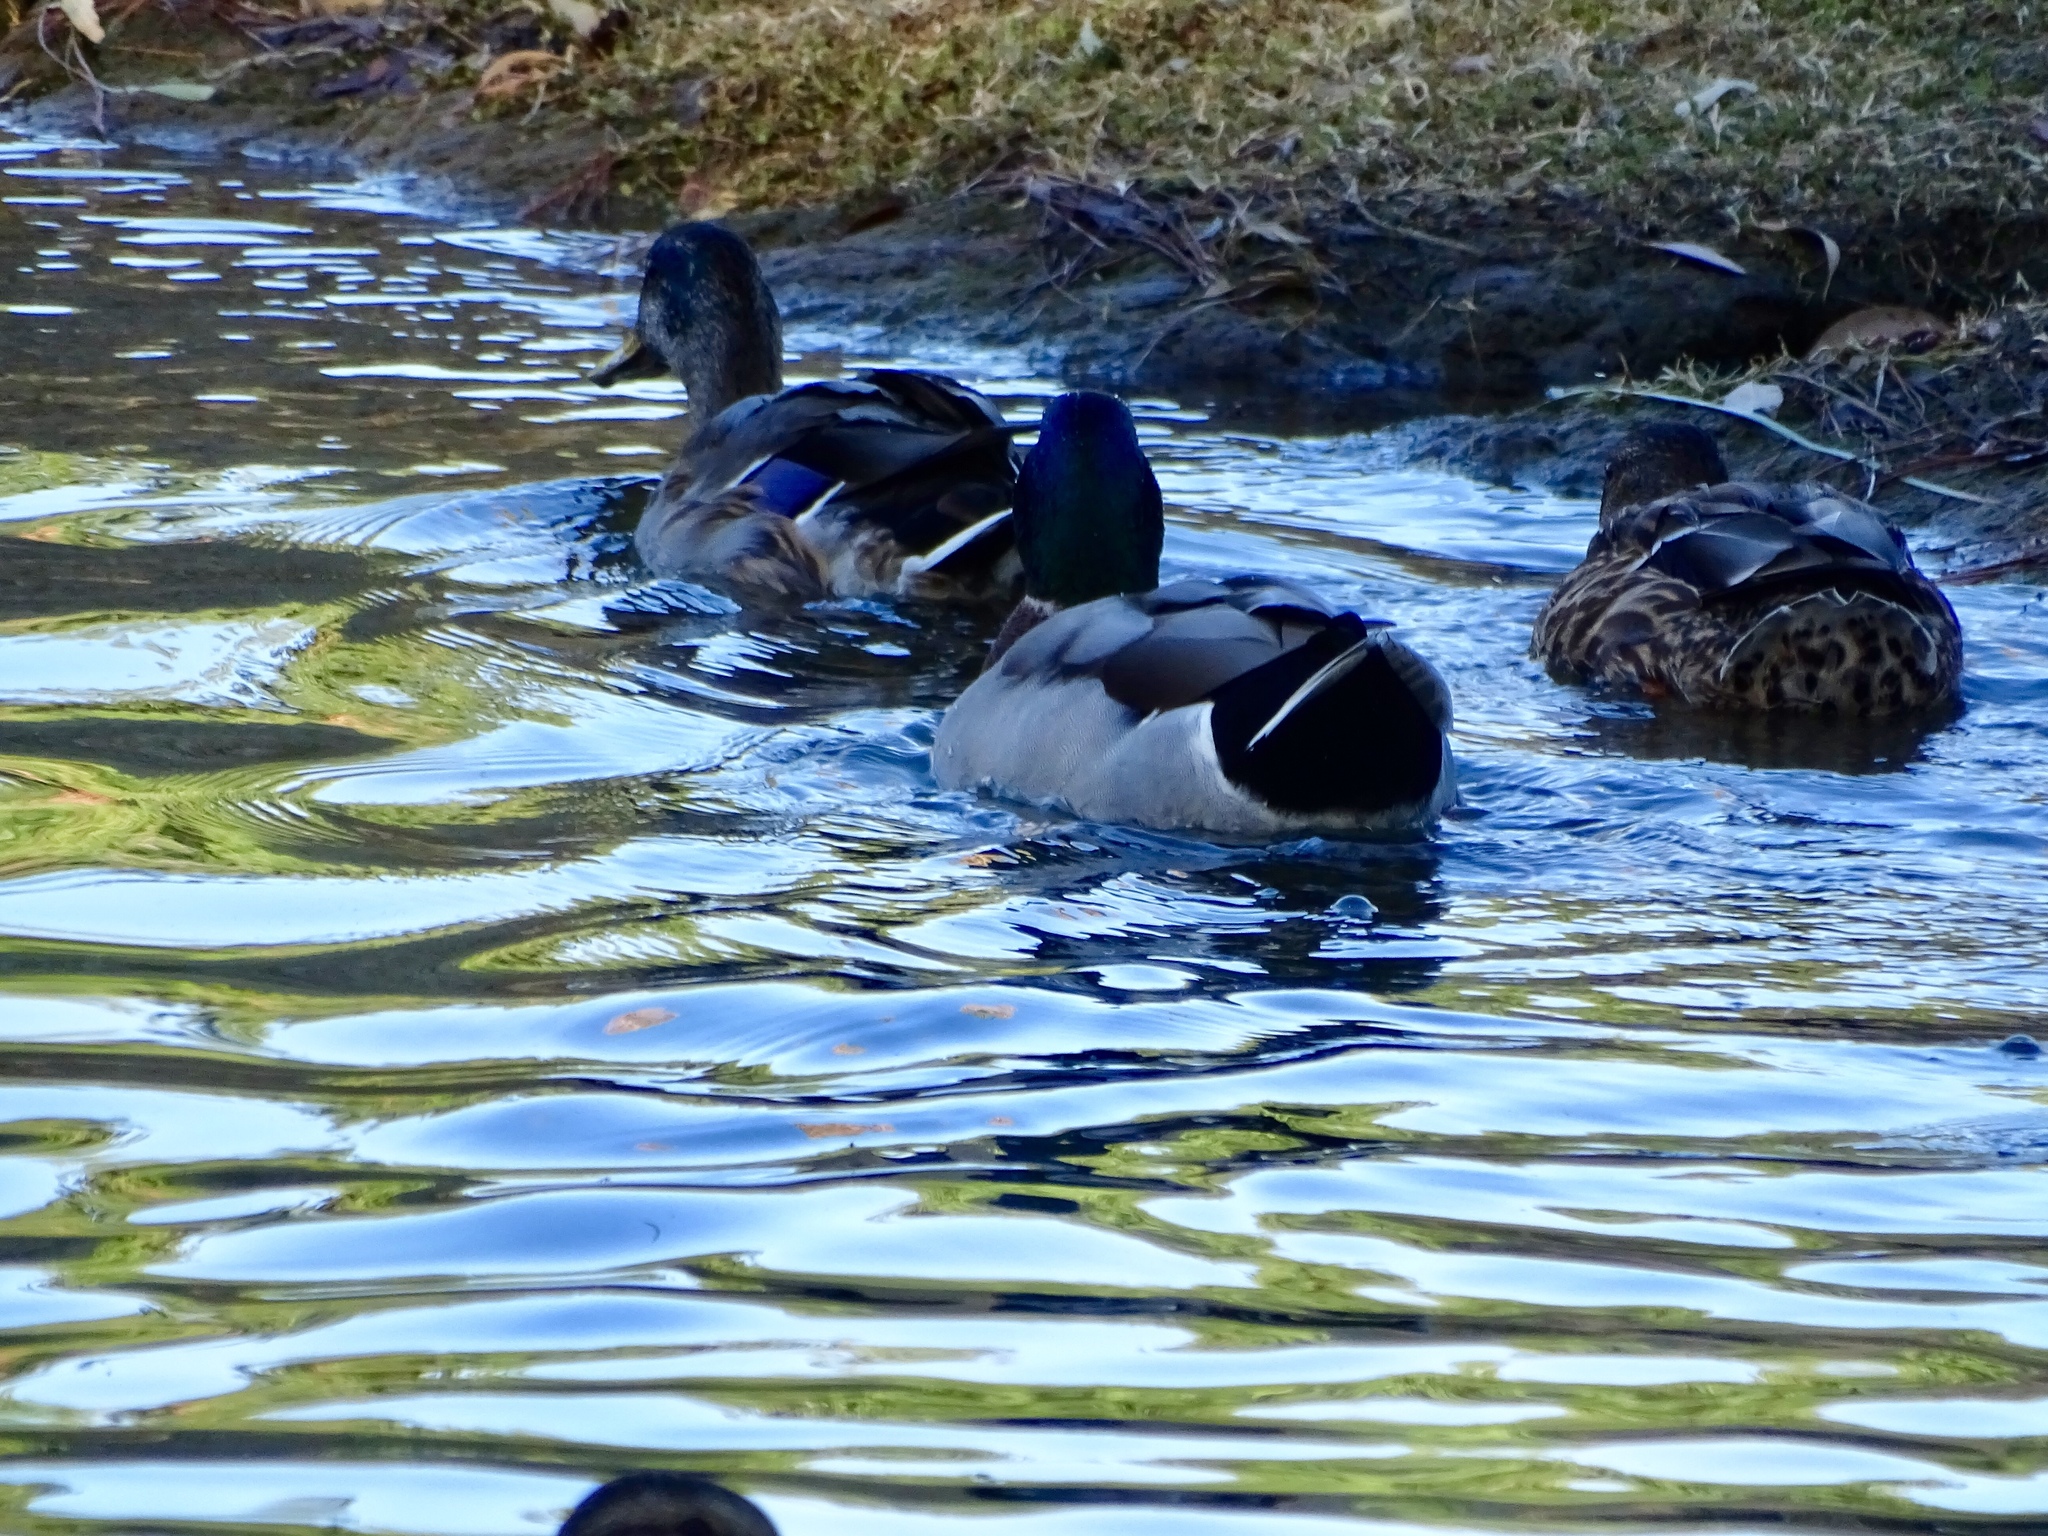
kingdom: Animalia
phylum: Chordata
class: Aves
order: Anseriformes
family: Anatidae
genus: Anas
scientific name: Anas platyrhynchos
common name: Mallard
